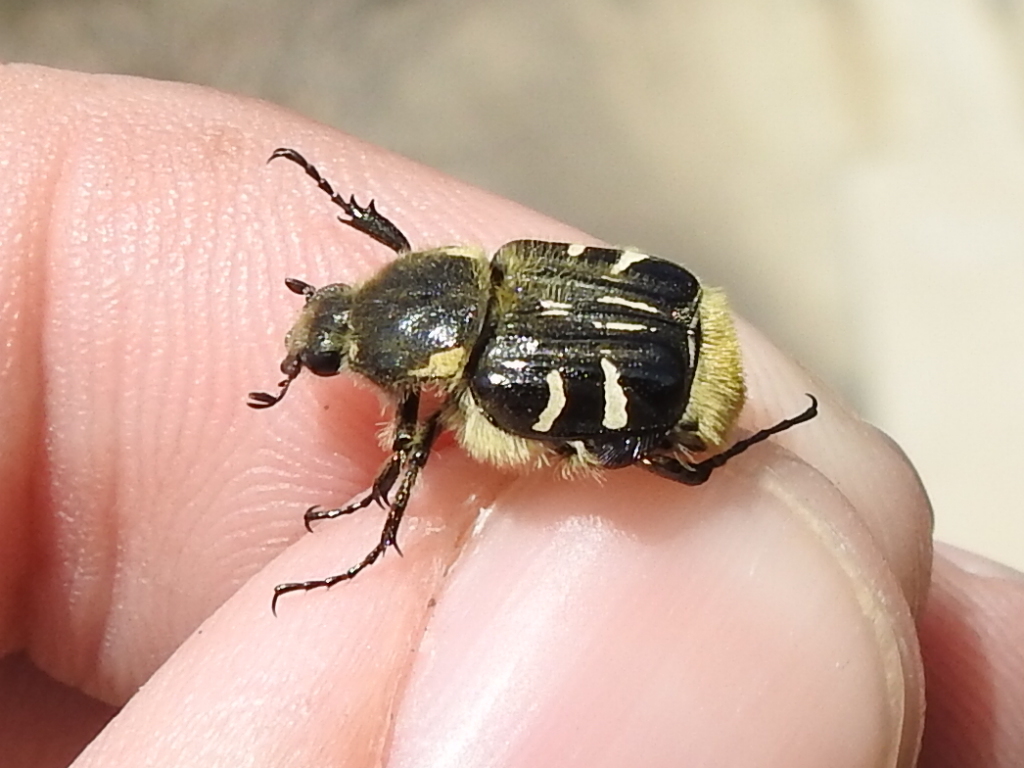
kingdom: Animalia
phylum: Arthropoda
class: Insecta
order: Coleoptera
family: Scarabaeidae
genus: Trichiotinus
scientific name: Trichiotinus texanus
